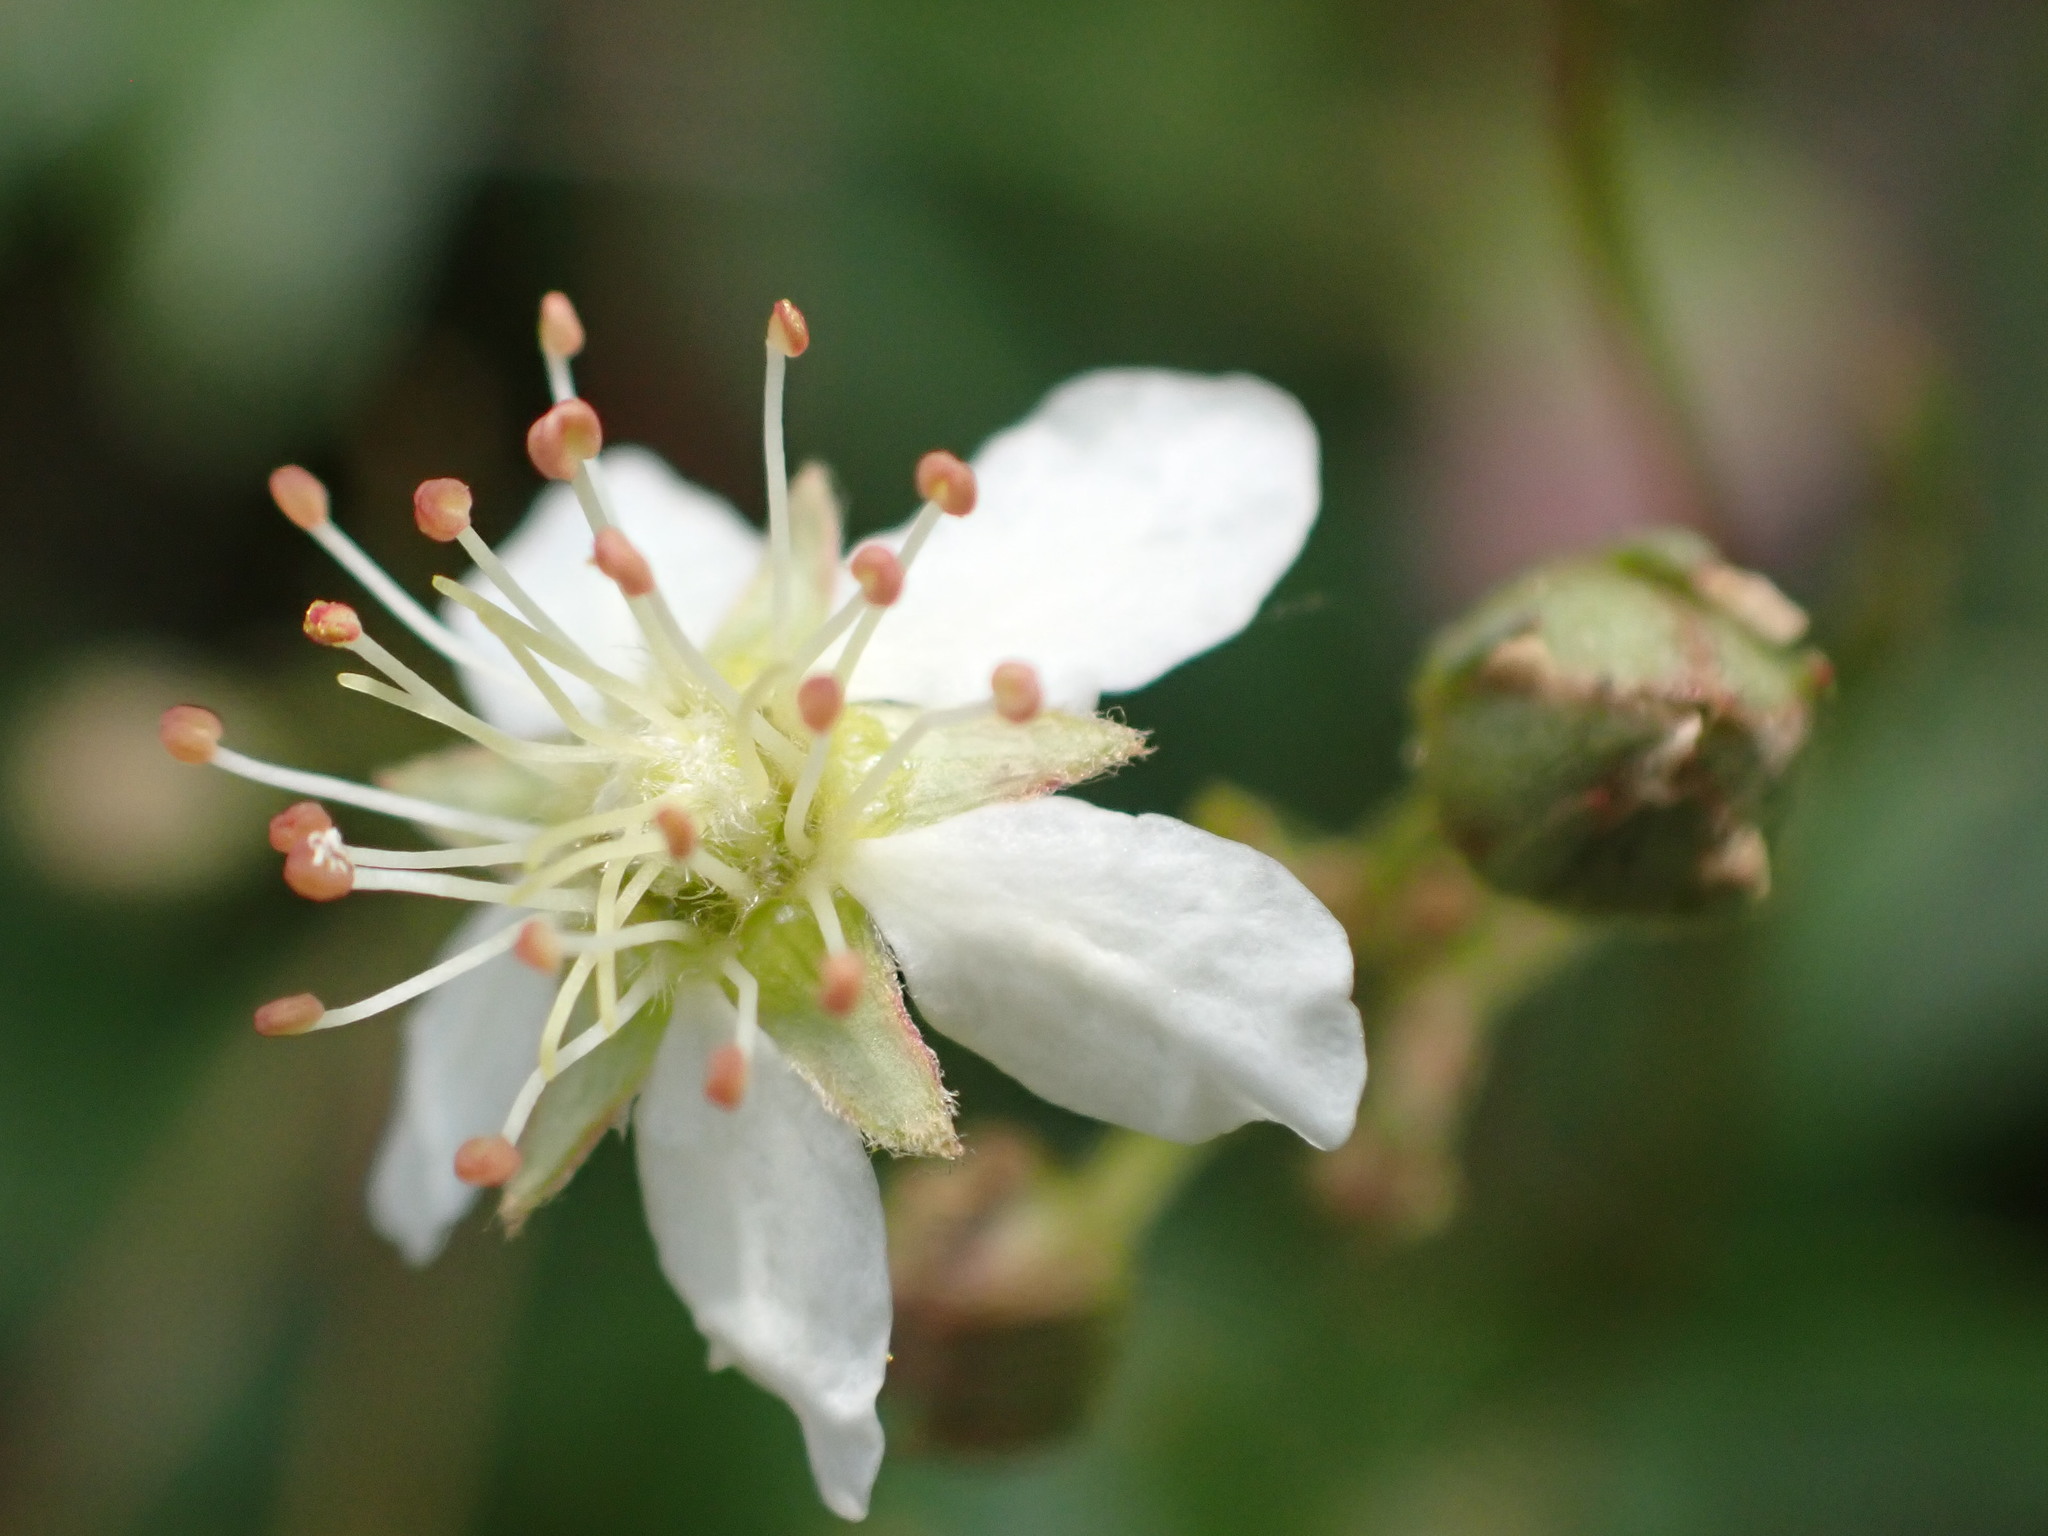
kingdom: Plantae
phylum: Tracheophyta
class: Magnoliopsida
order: Rosales
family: Rosaceae
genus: Sibbaldia
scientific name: Sibbaldia tridentata
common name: Three-toothed cinquefoil
